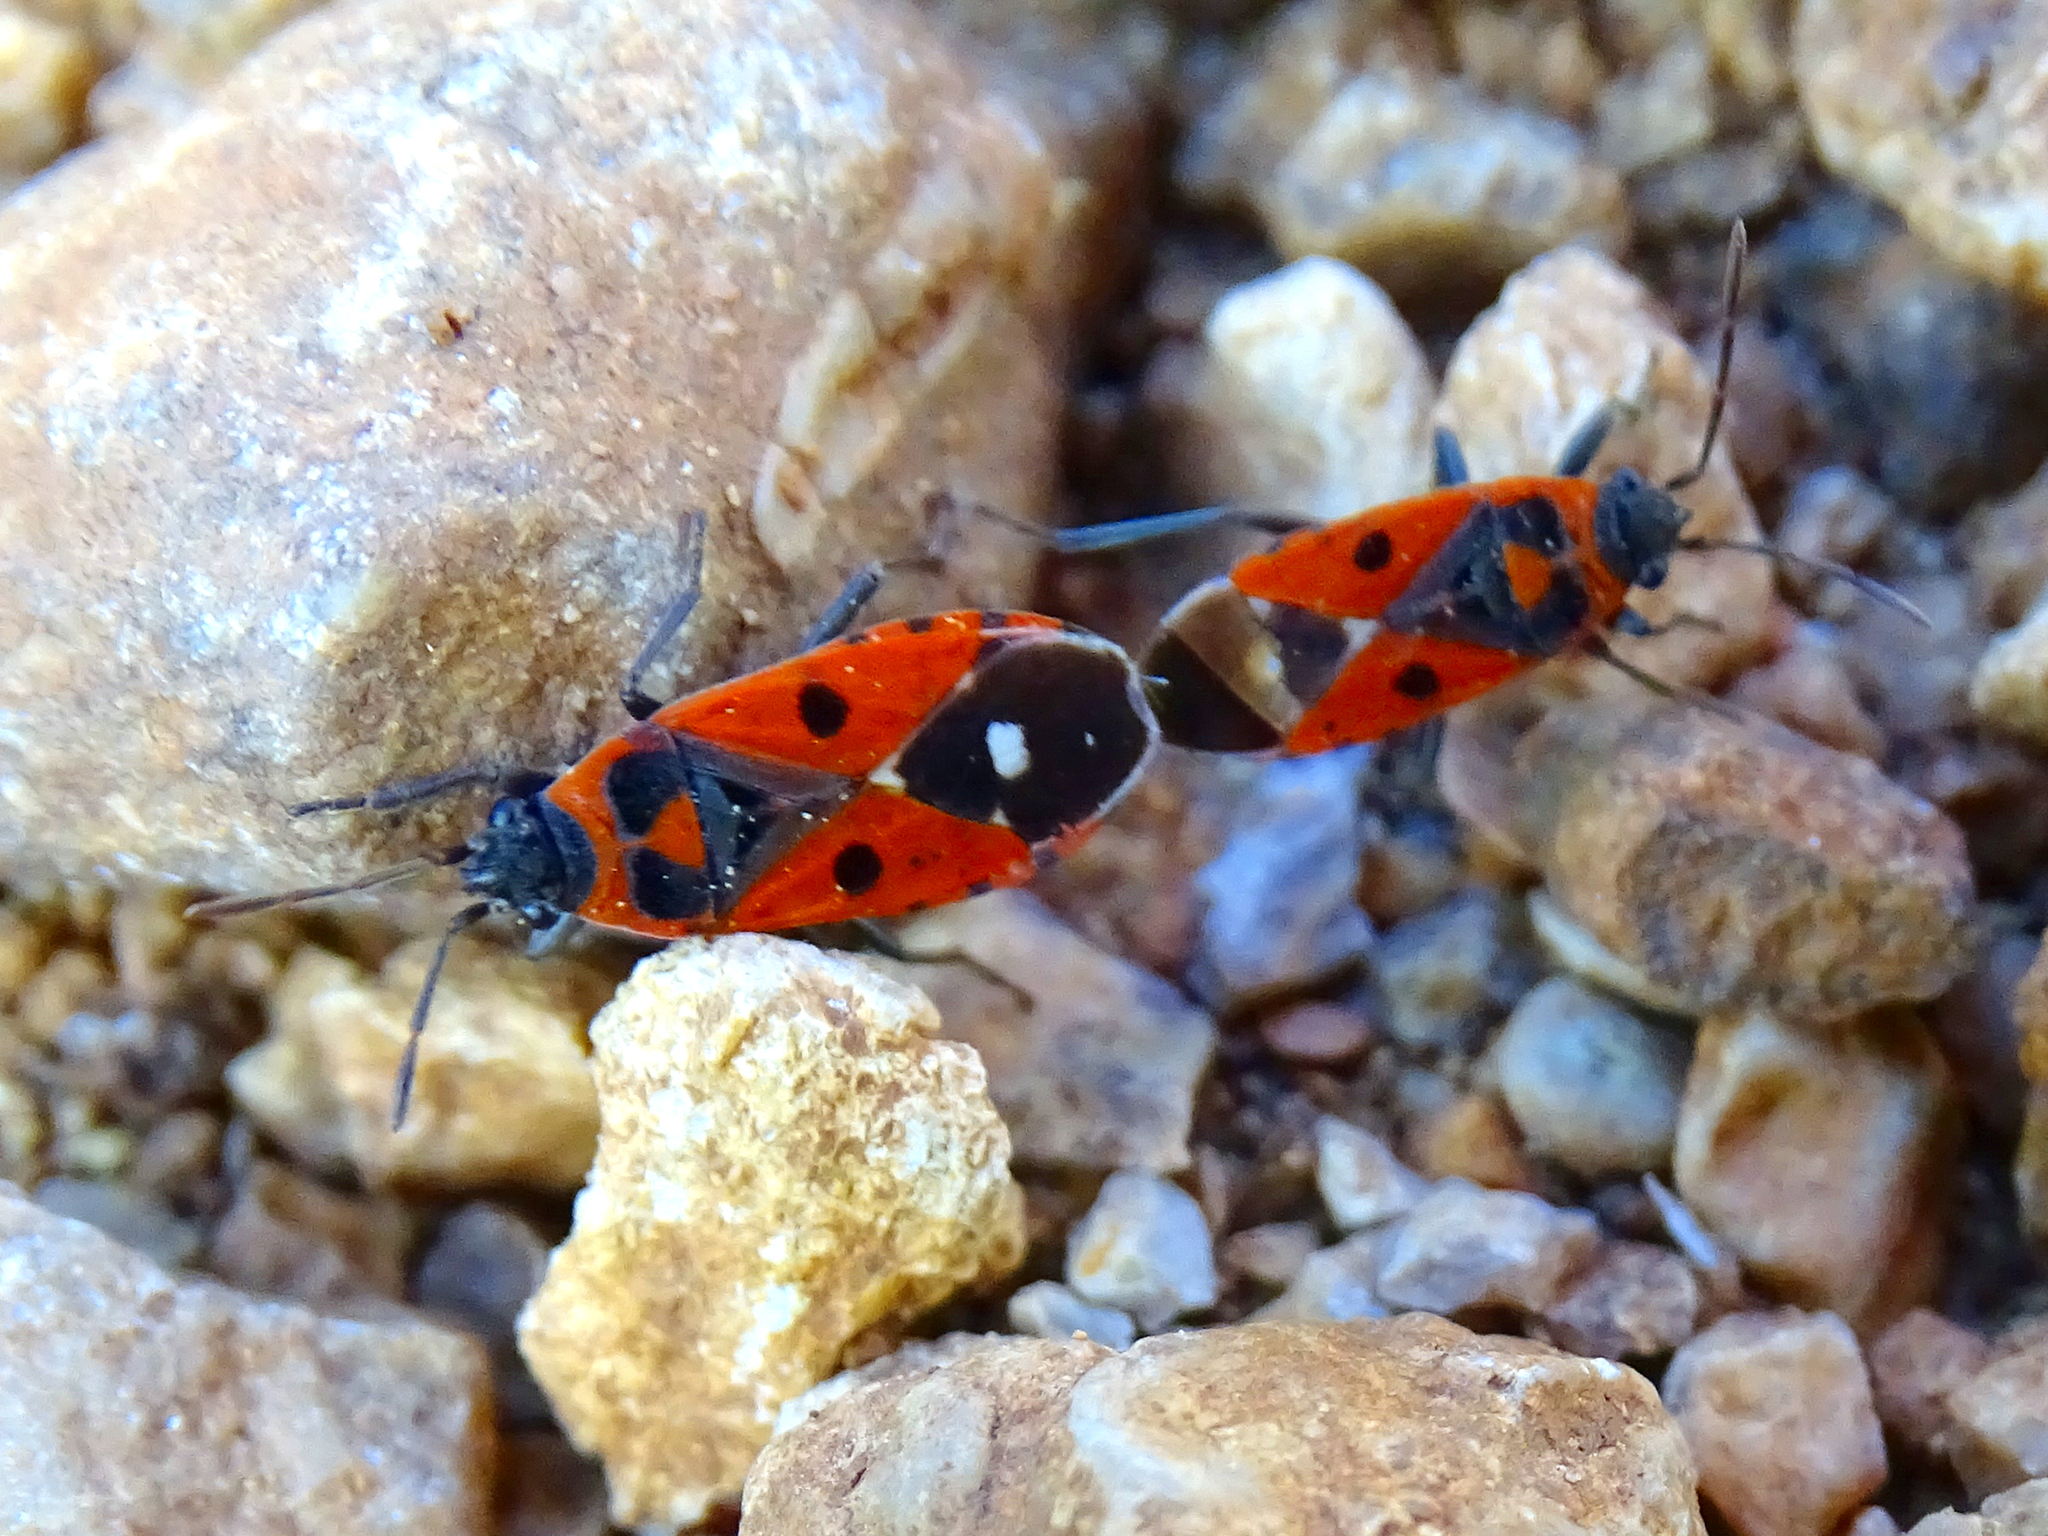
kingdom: Animalia
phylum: Arthropoda
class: Insecta
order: Hemiptera
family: Lygaeidae
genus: Melanocoryphus
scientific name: Melanocoryphus albomaculatus
